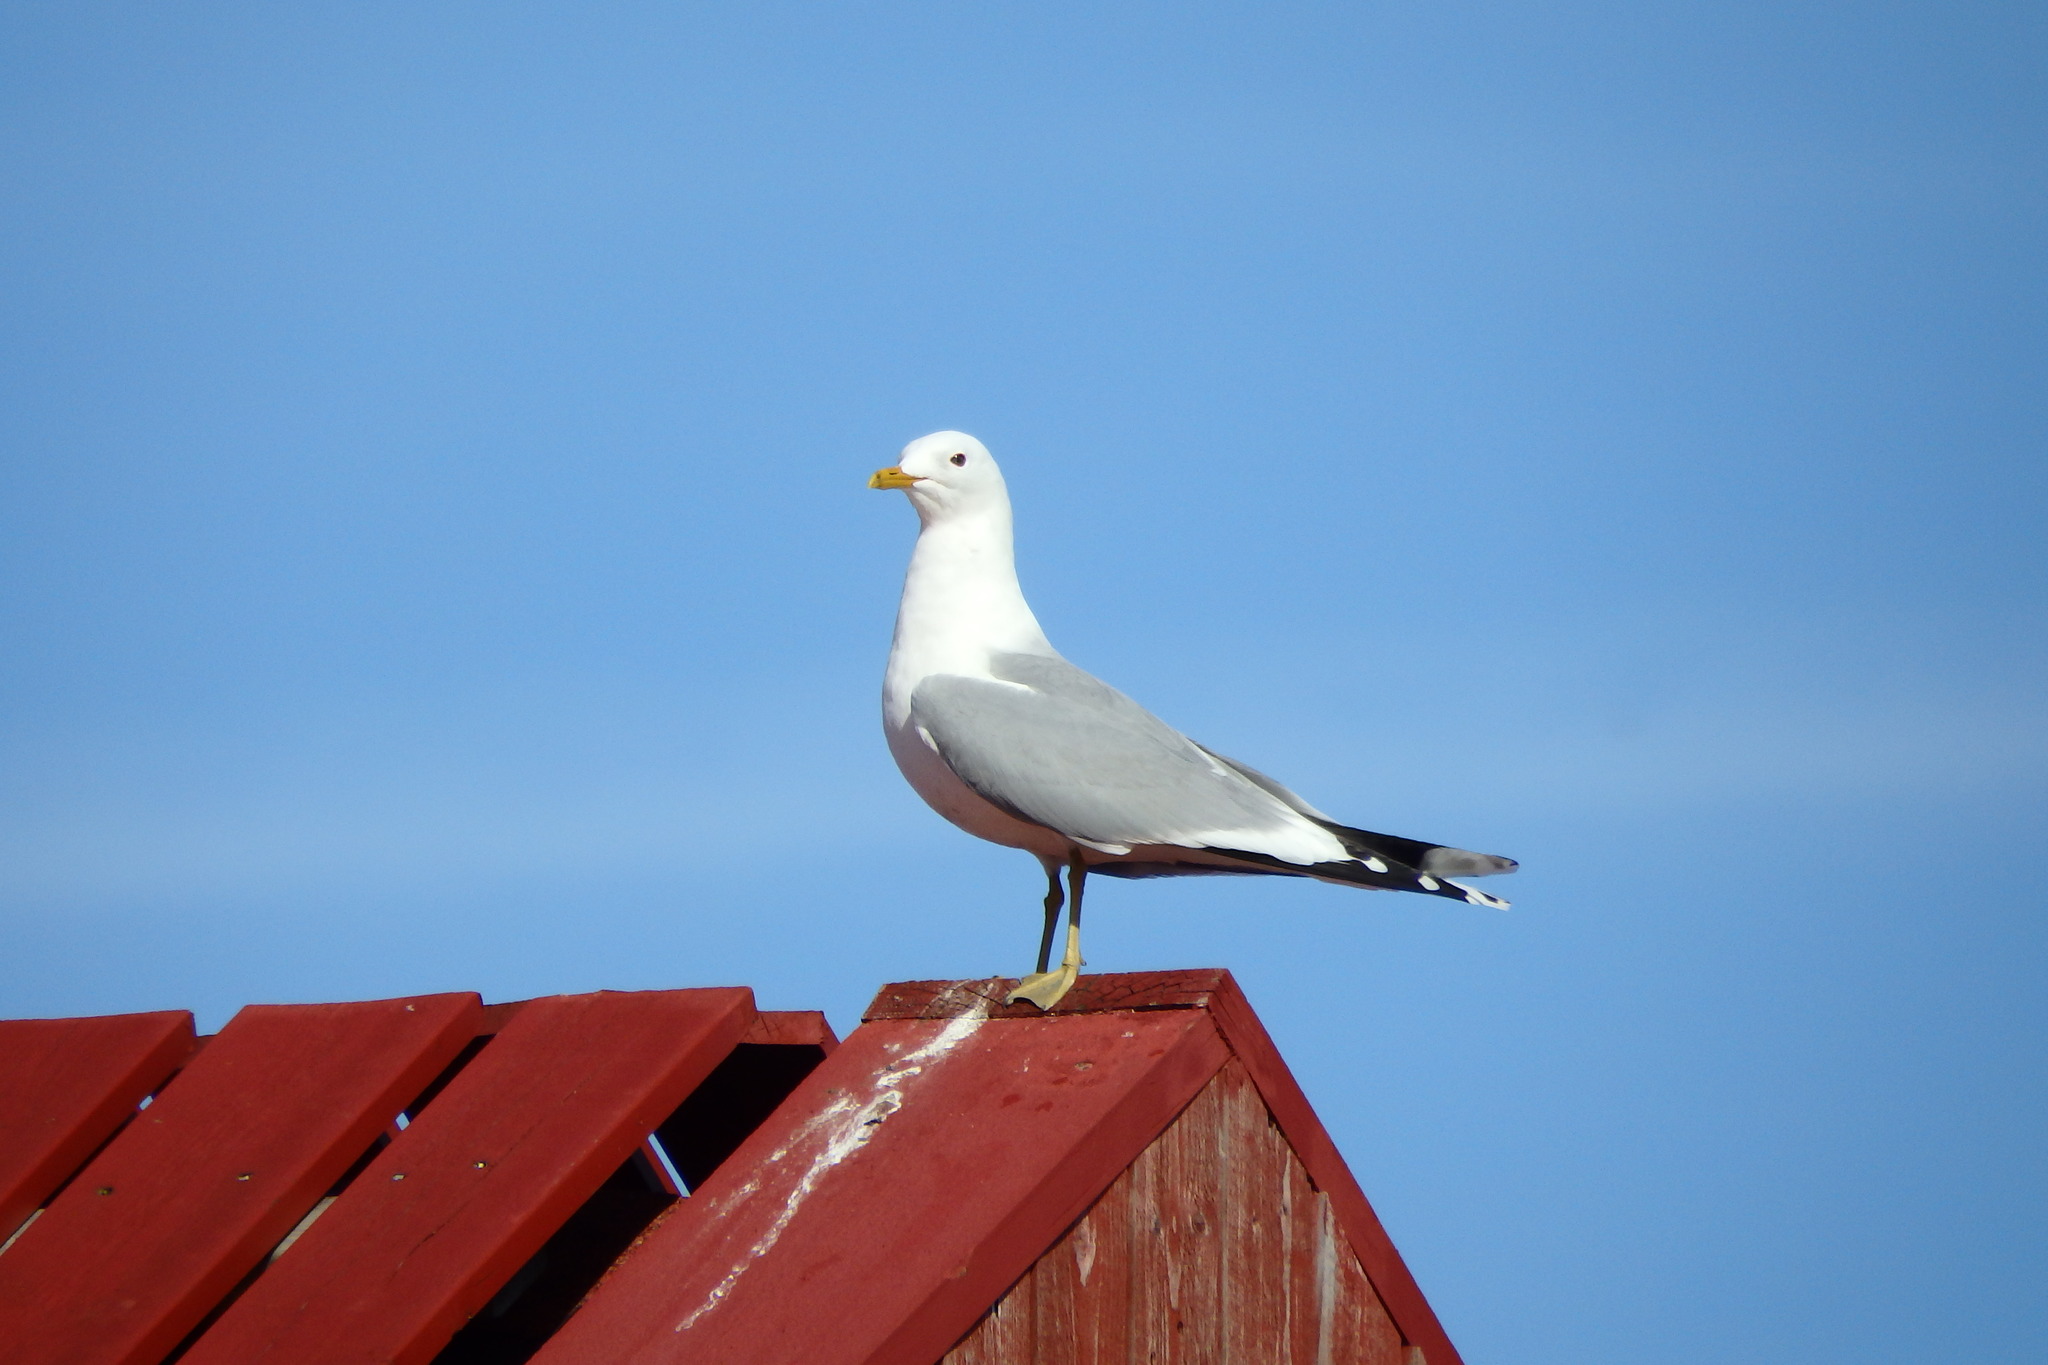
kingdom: Animalia
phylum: Chordata
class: Aves
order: Charadriiformes
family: Laridae
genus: Larus
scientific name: Larus canus
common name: Mew gull
